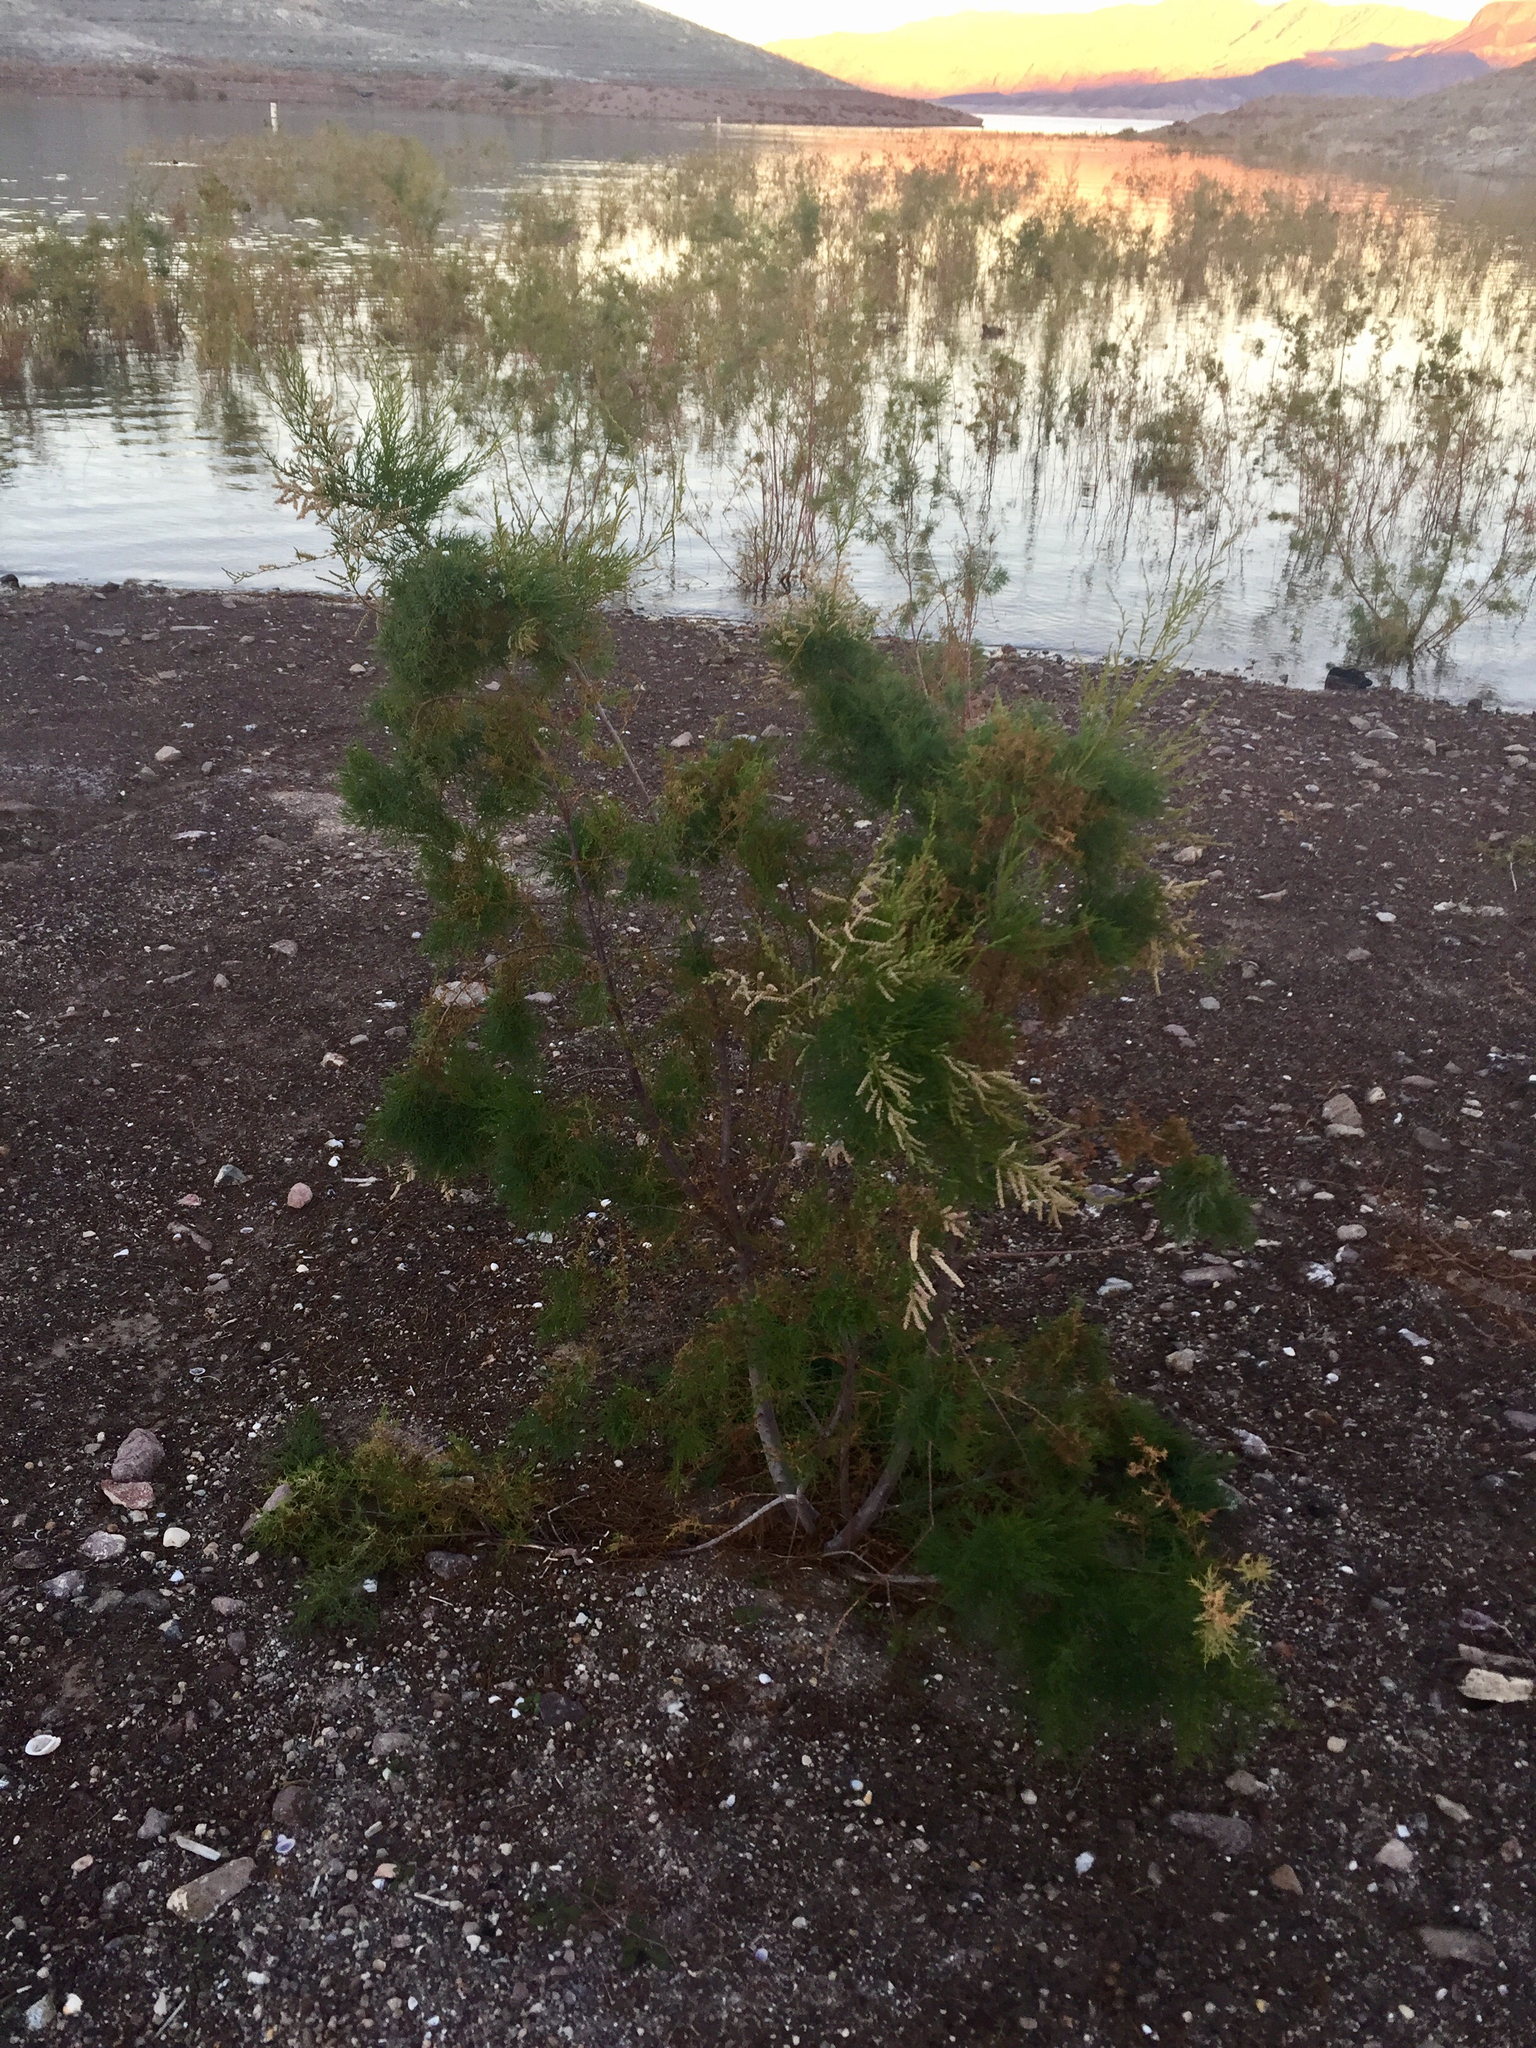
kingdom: Plantae
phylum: Tracheophyta
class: Magnoliopsida
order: Caryophyllales
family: Tamaricaceae
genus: Tamarix
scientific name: Tamarix
